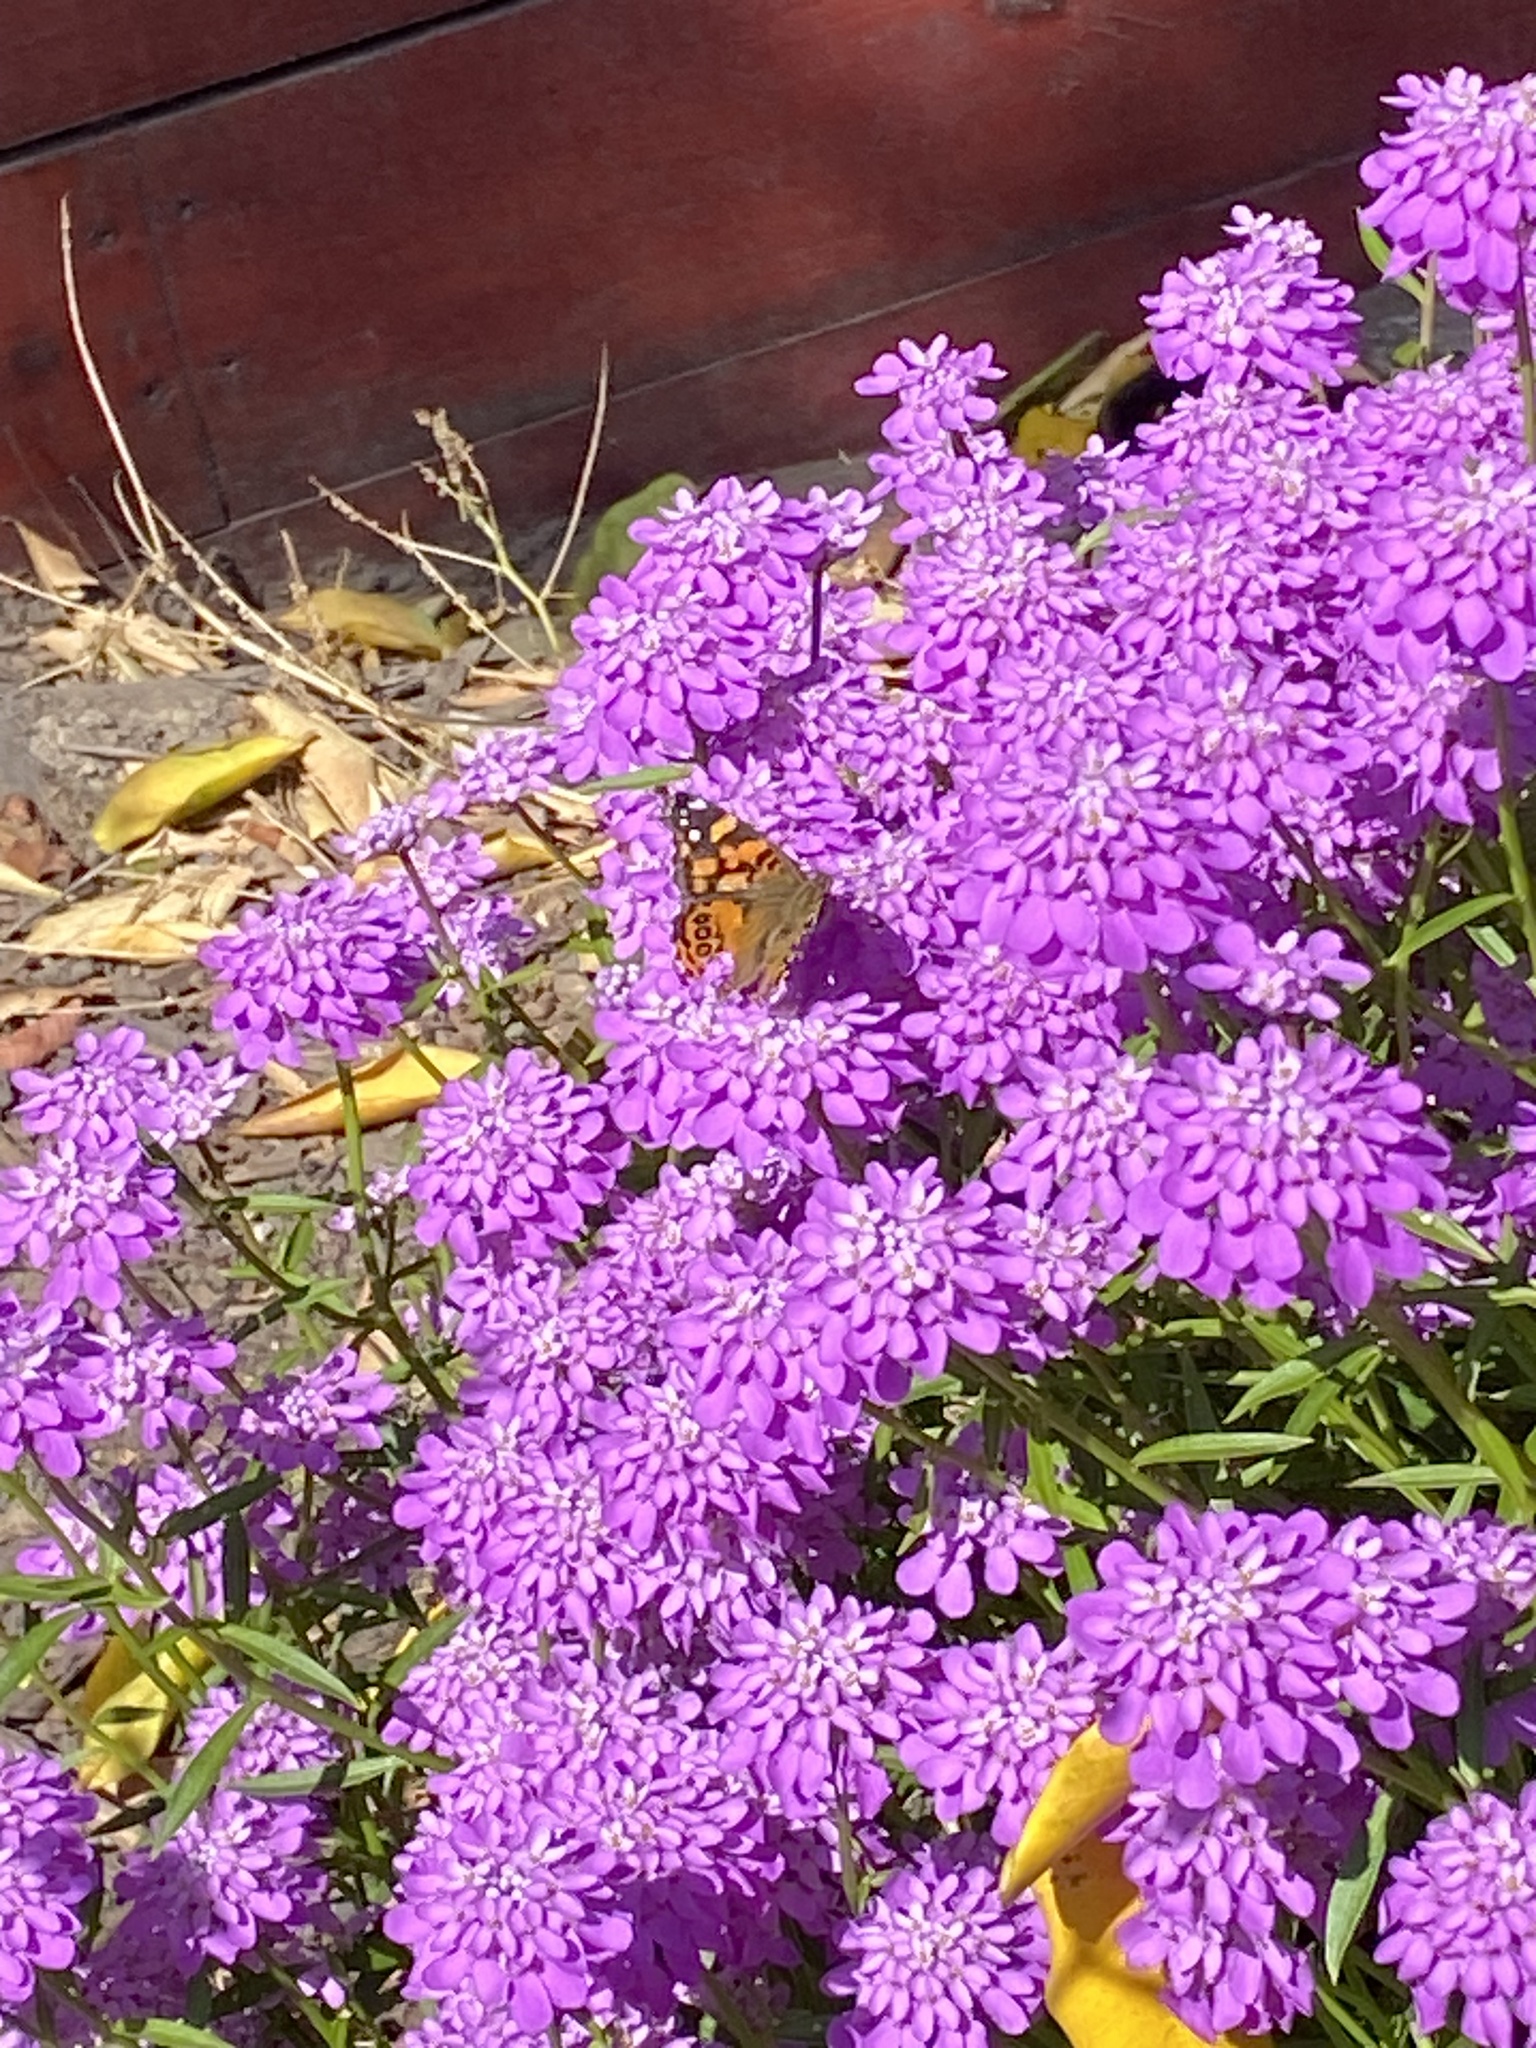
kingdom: Animalia
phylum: Arthropoda
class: Insecta
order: Lepidoptera
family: Nymphalidae
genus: Vanessa
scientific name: Vanessa annabella
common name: West coast lady
